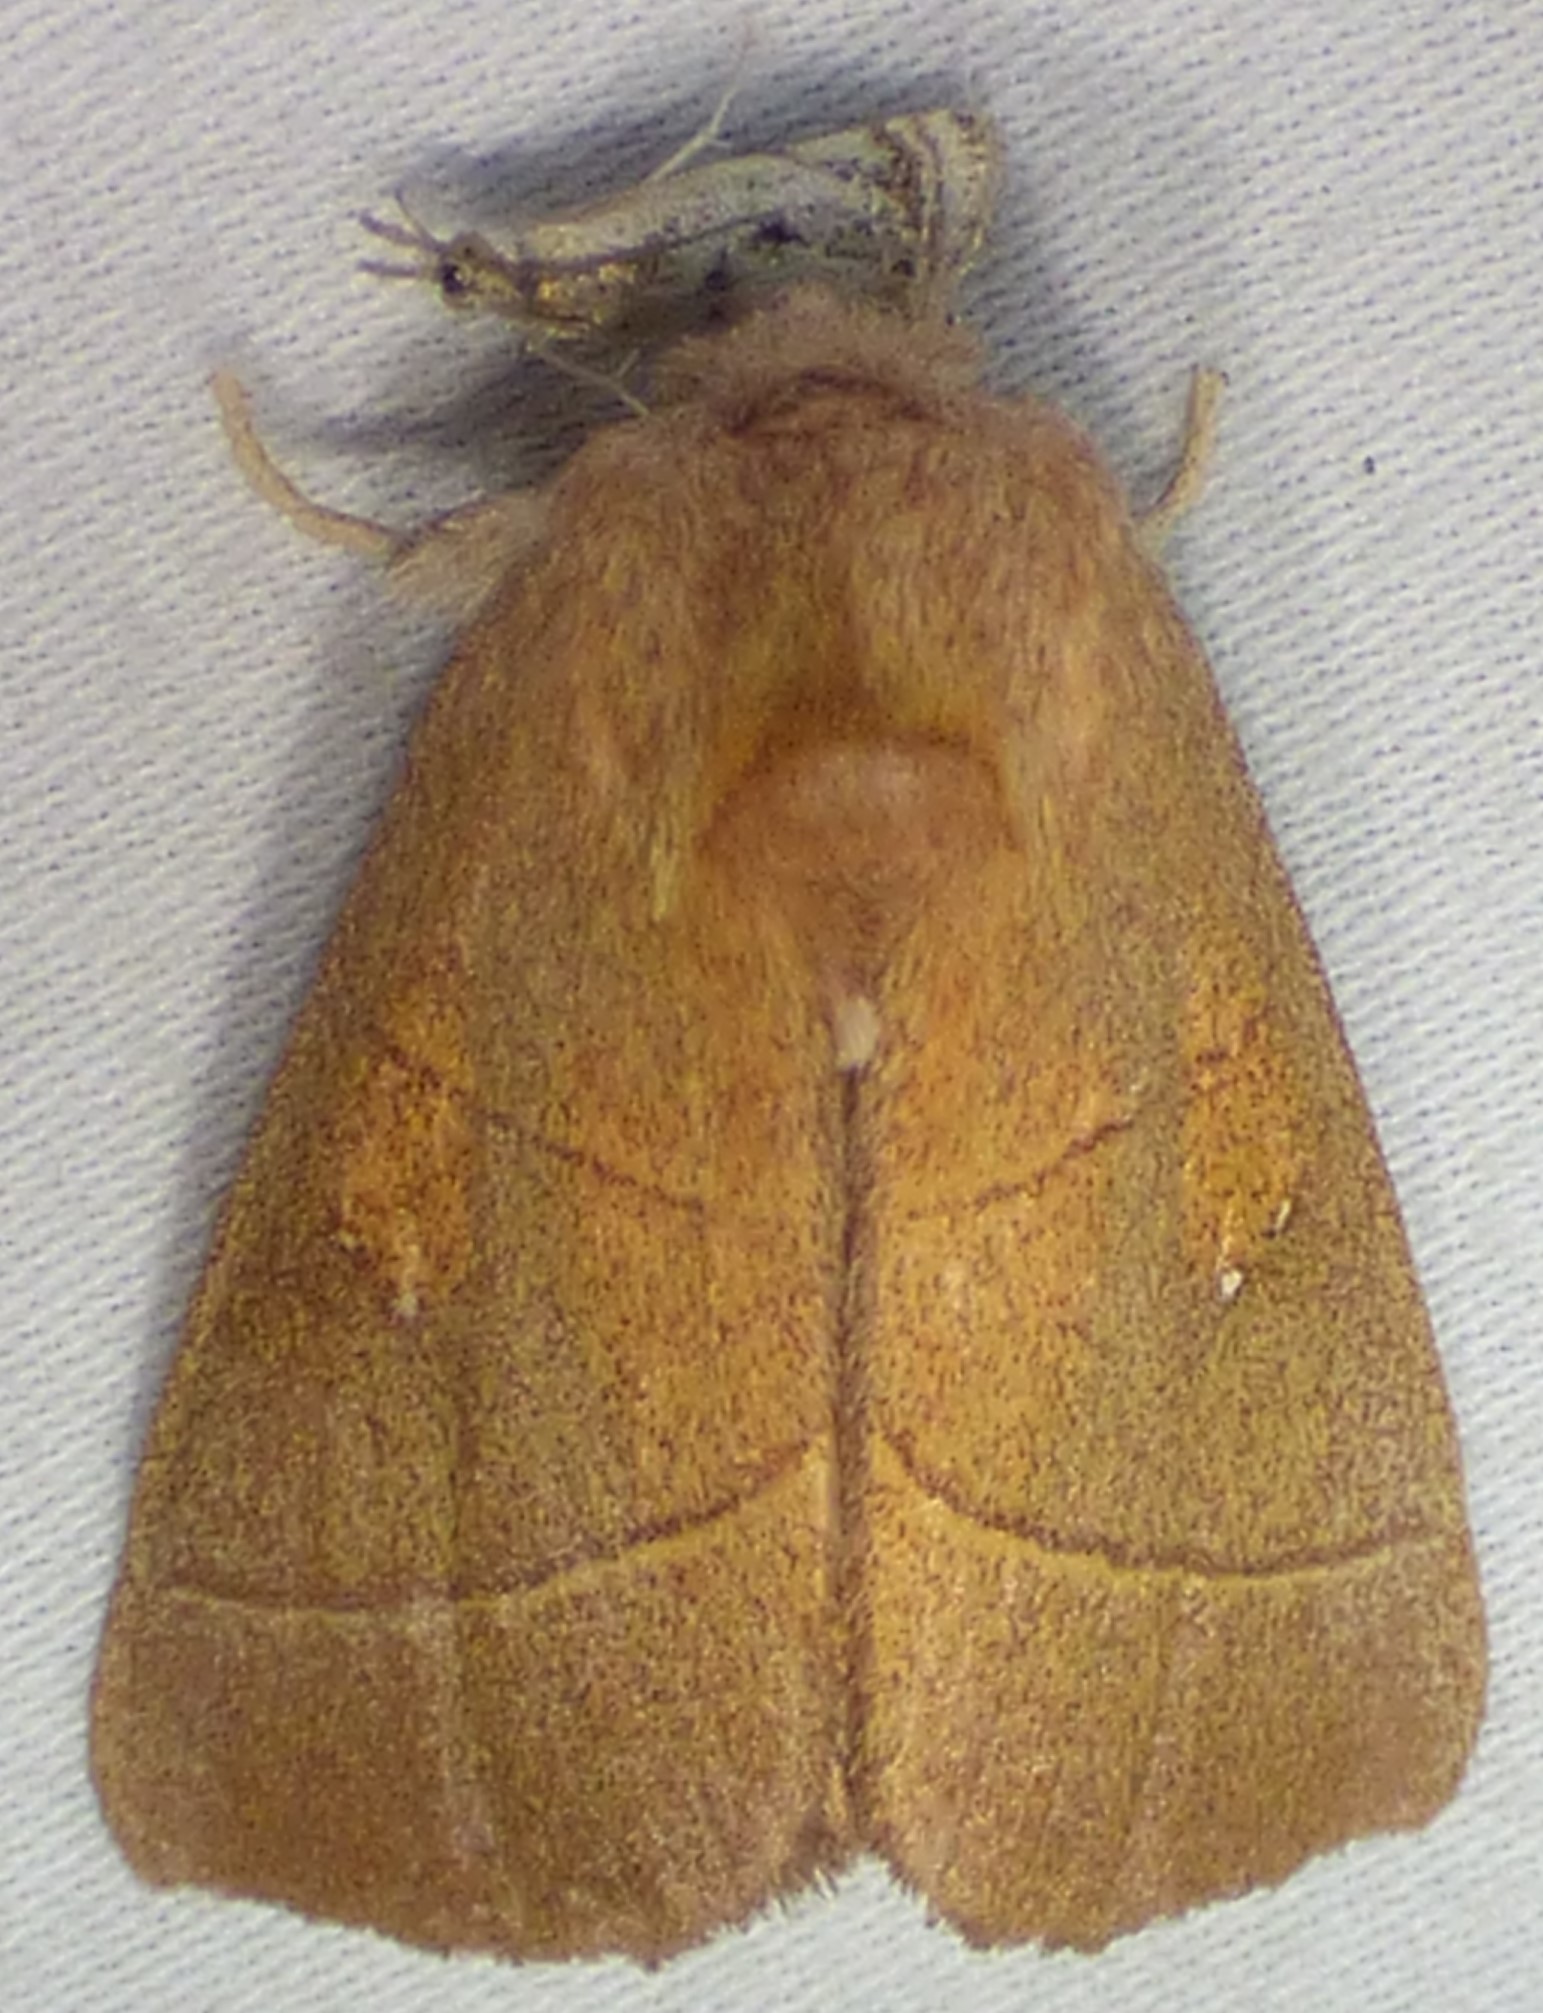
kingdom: Animalia
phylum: Arthropoda
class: Insecta
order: Lepidoptera
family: Notodontidae
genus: Nadata
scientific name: Nadata gibbosa
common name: White-dotted prominent
